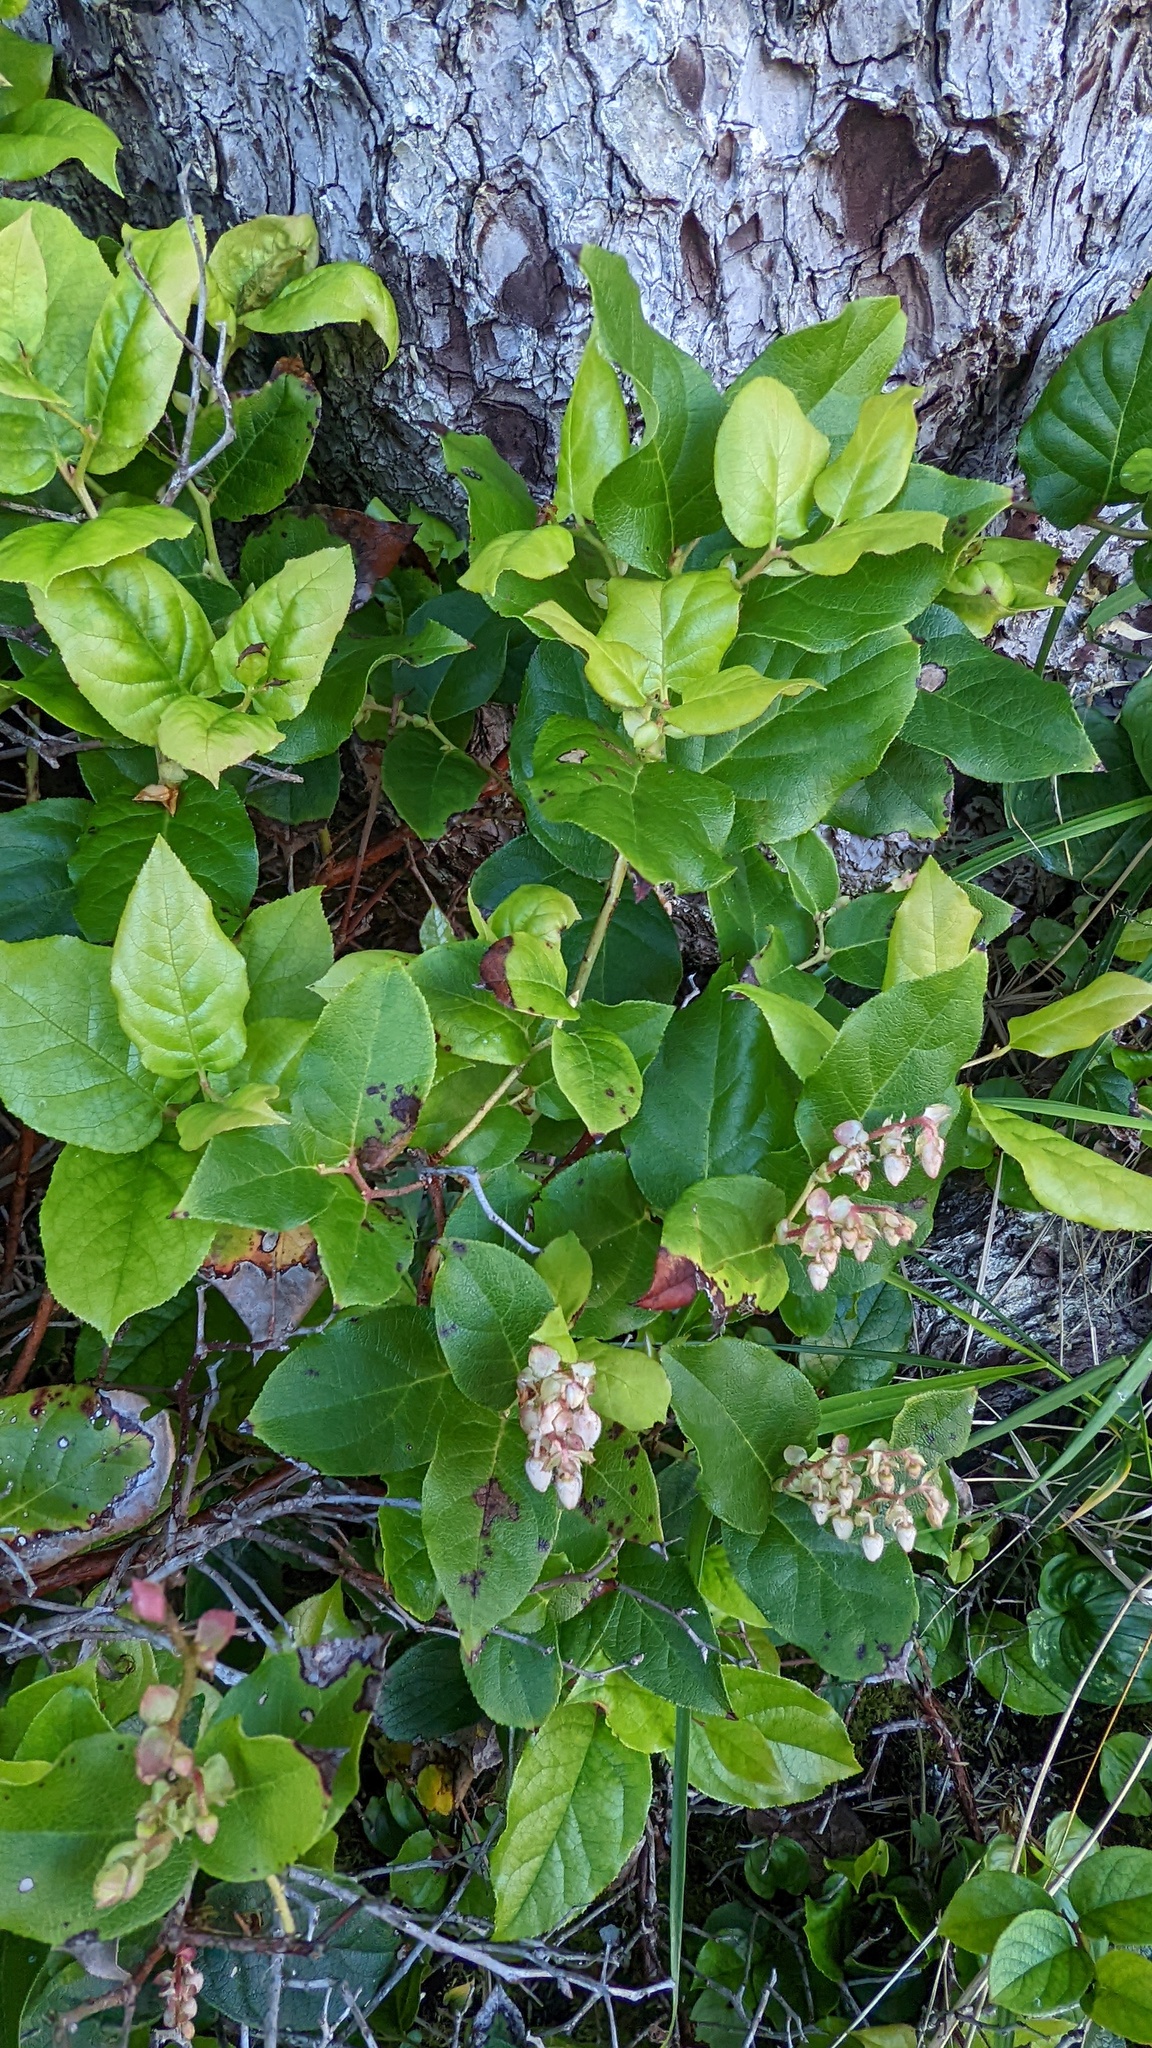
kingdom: Plantae
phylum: Tracheophyta
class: Magnoliopsida
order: Ericales
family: Ericaceae
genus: Gaultheria
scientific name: Gaultheria shallon
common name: Shallon
